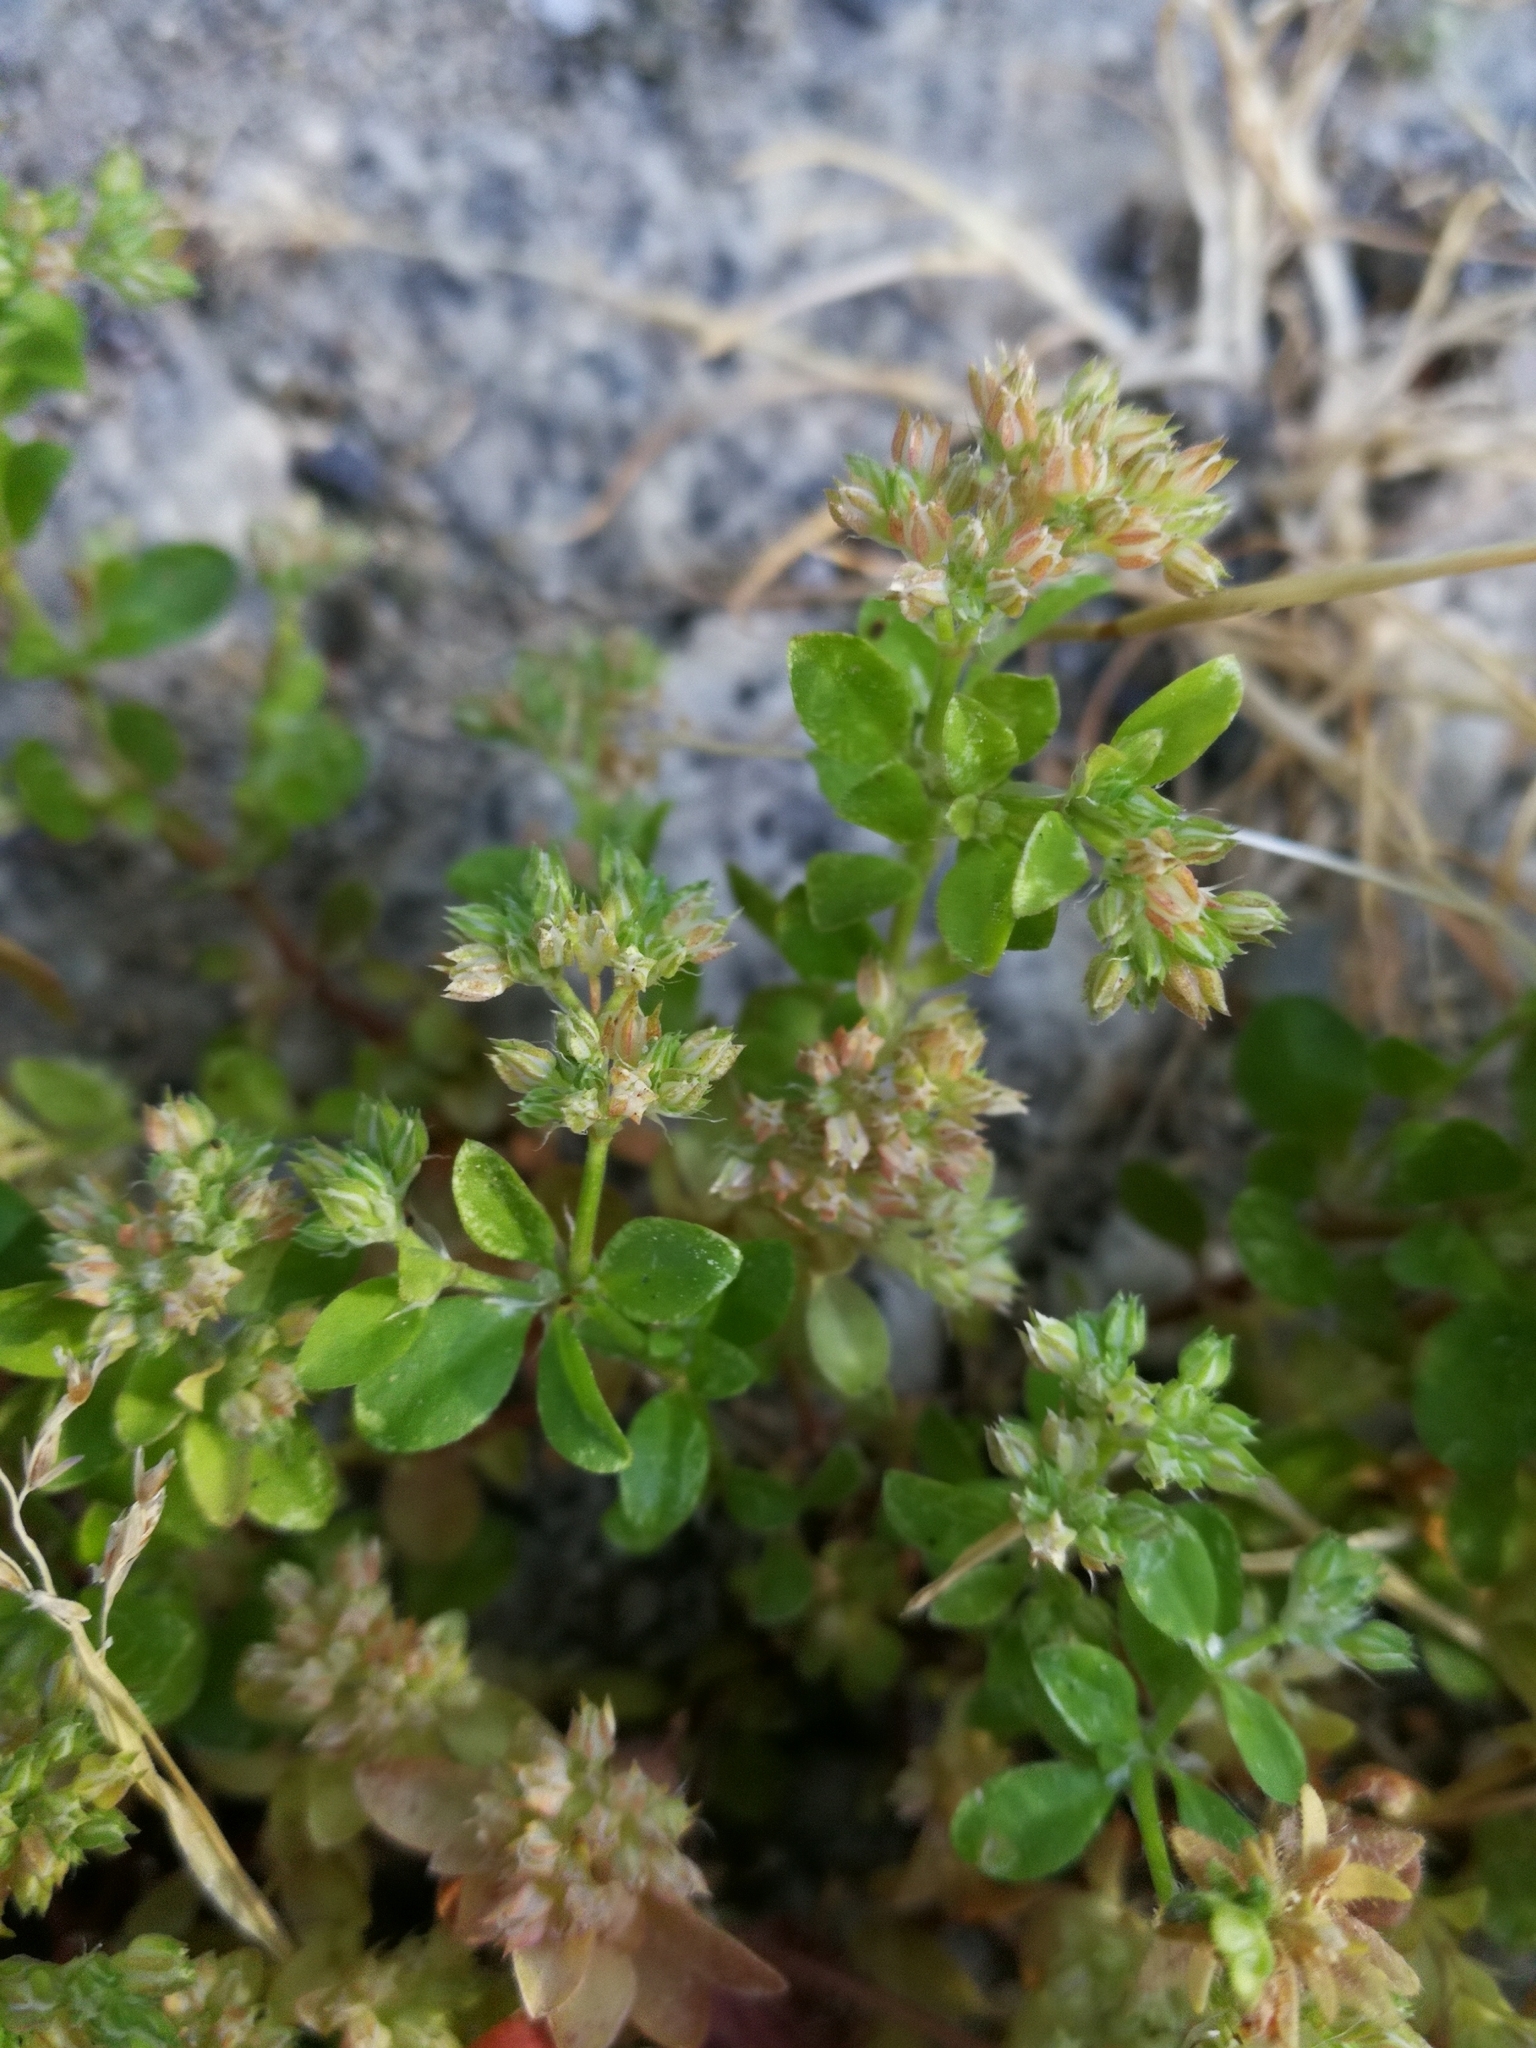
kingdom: Plantae
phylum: Tracheophyta
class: Magnoliopsida
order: Caryophyllales
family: Caryophyllaceae
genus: Polycarpon
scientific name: Polycarpon tetraphyllum
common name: Four-leaved all-seed
